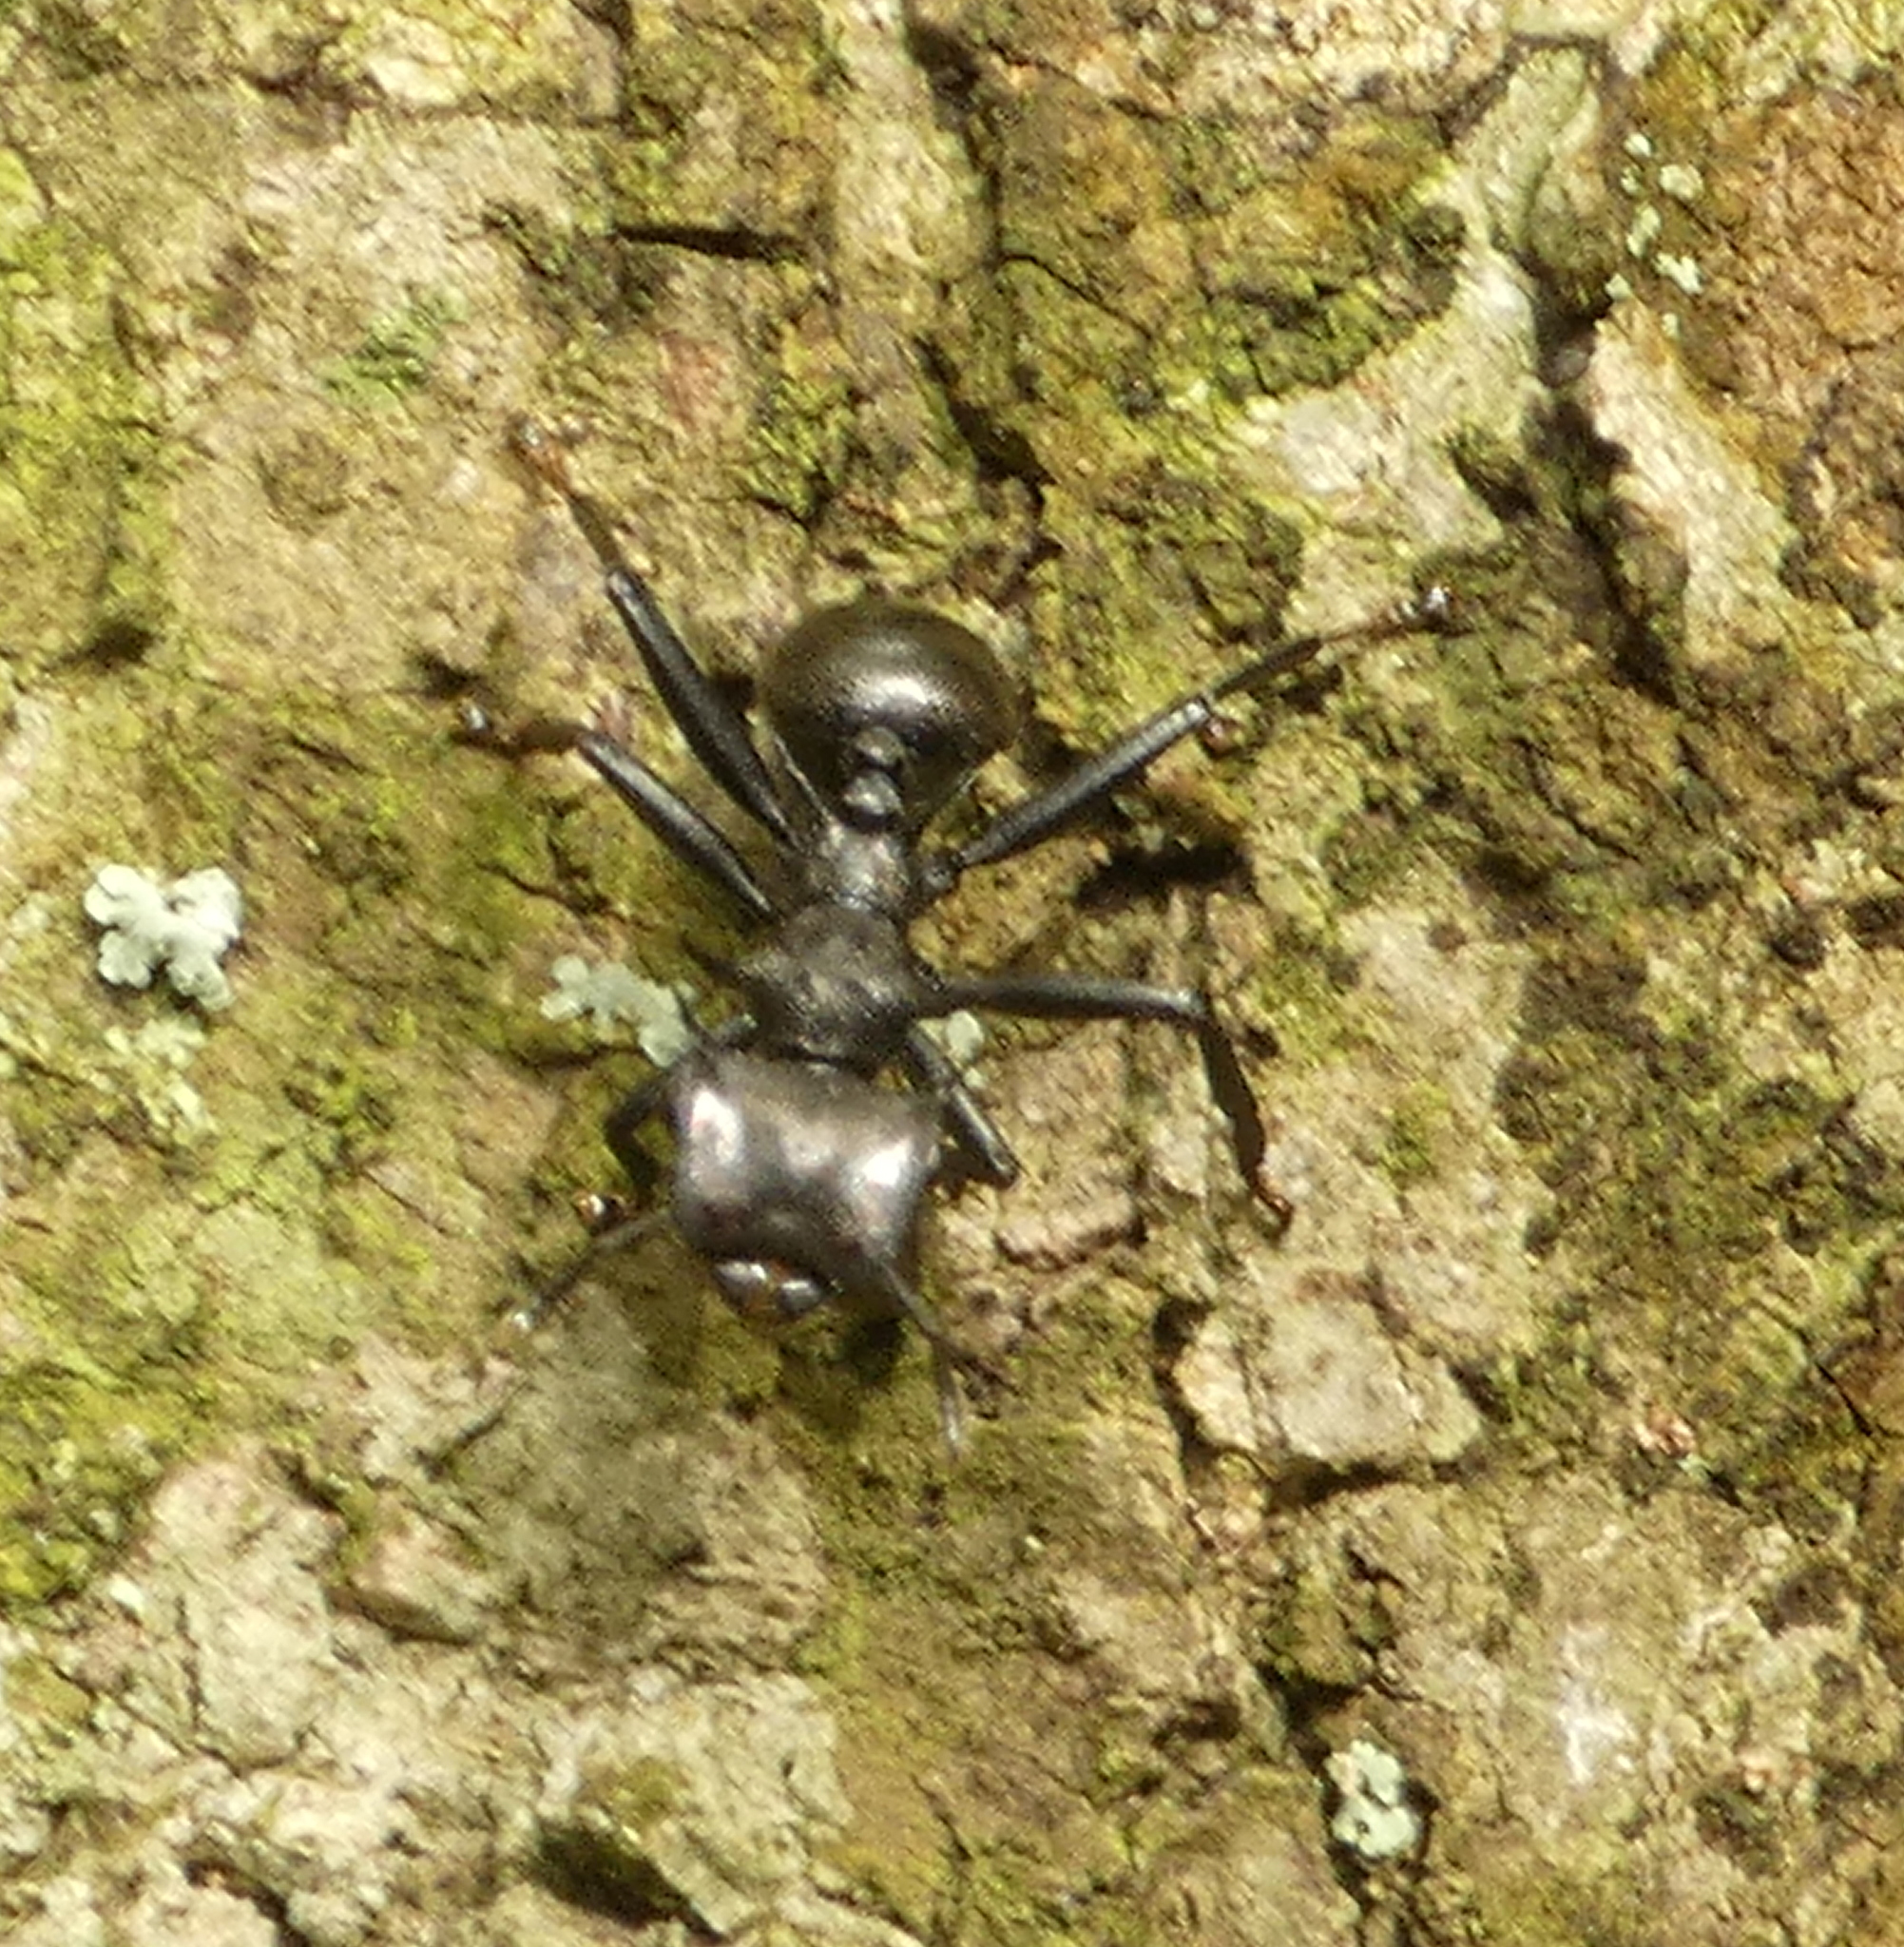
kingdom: Animalia
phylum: Arthropoda
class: Insecta
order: Hymenoptera
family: Formicidae
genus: Cephalotes
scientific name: Cephalotes atratus
